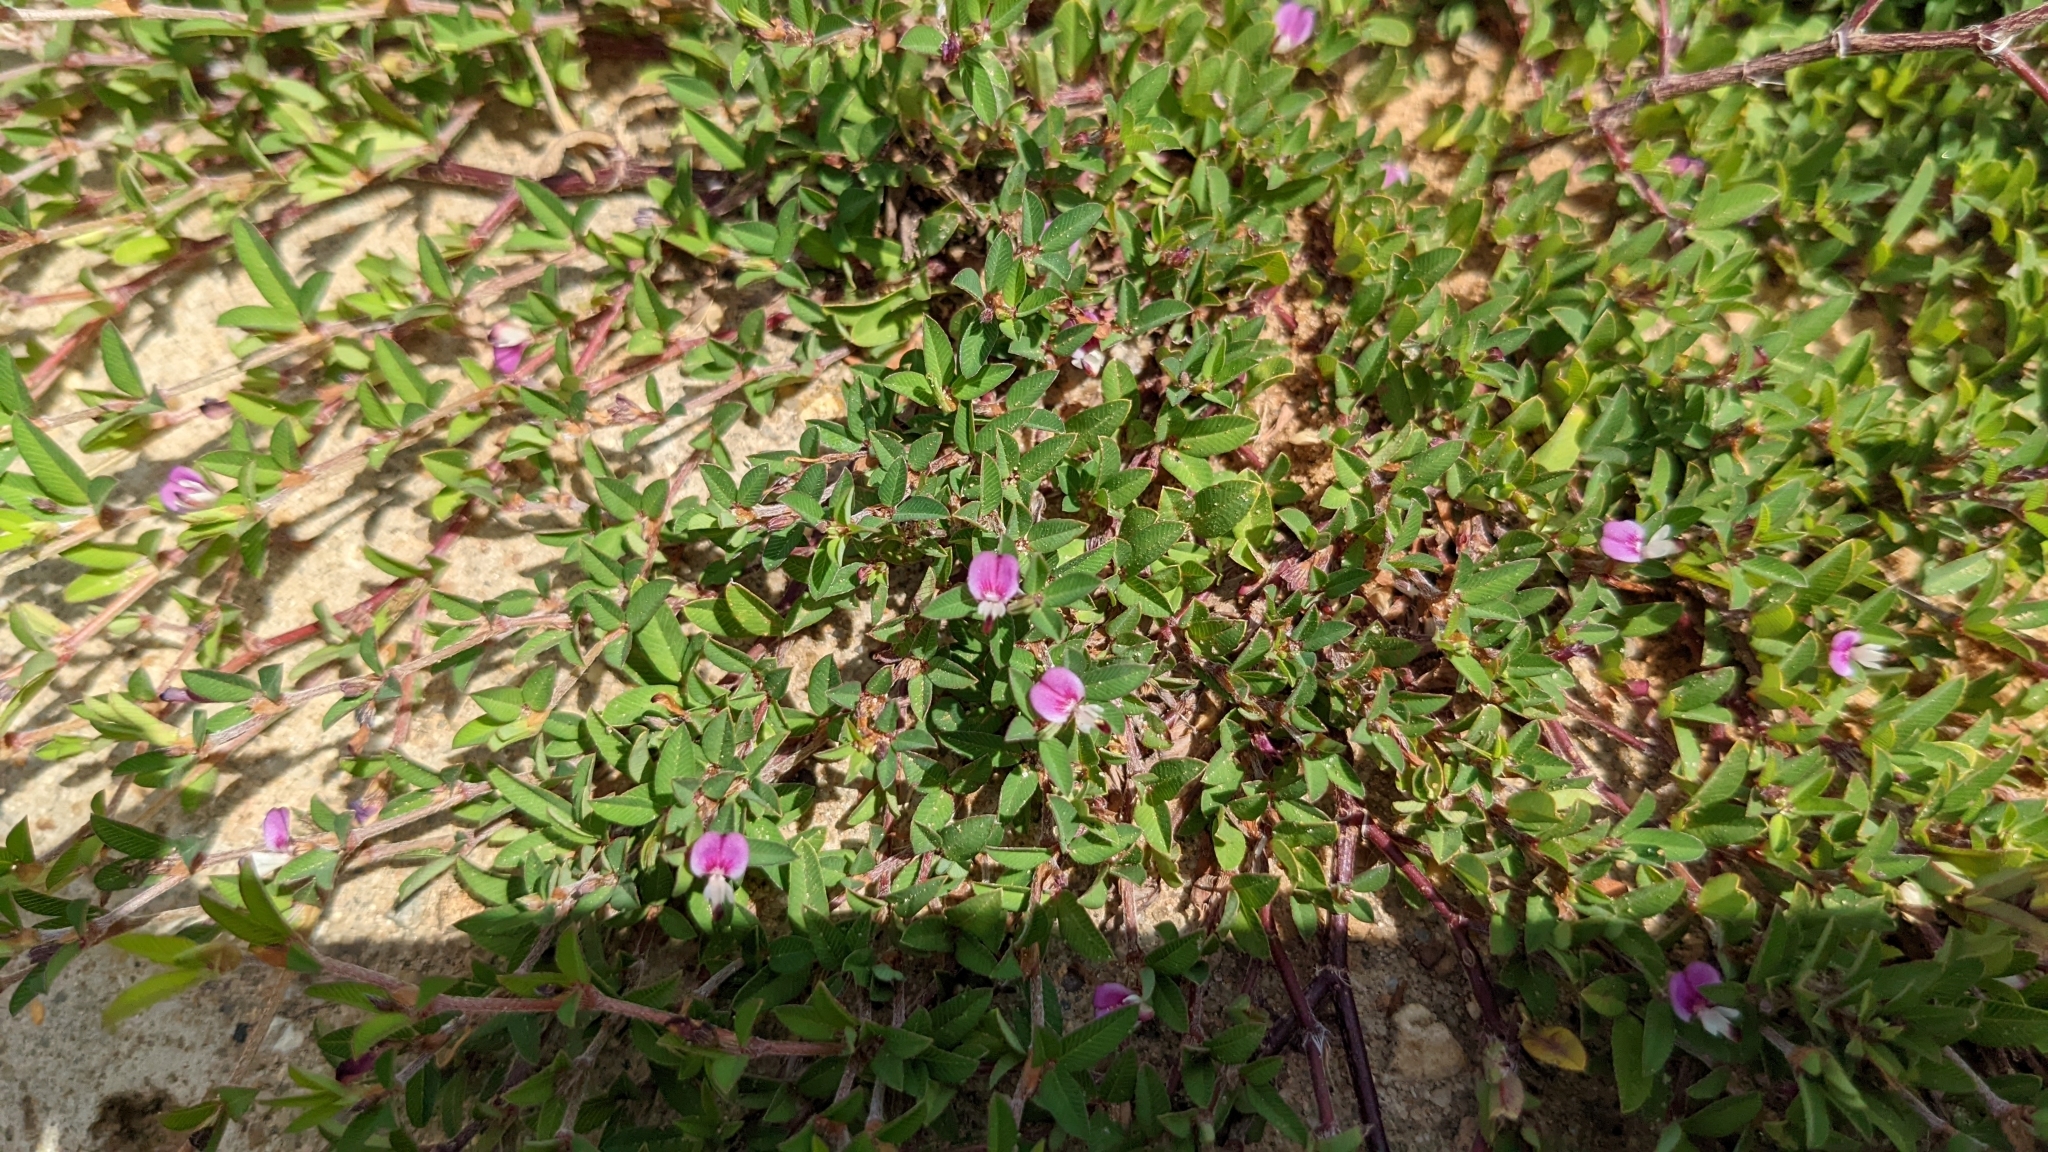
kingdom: Plantae
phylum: Tracheophyta
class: Magnoliopsida
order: Fabales
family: Fabaceae
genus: Kummerowia
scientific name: Kummerowia striata
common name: Japanese clover
